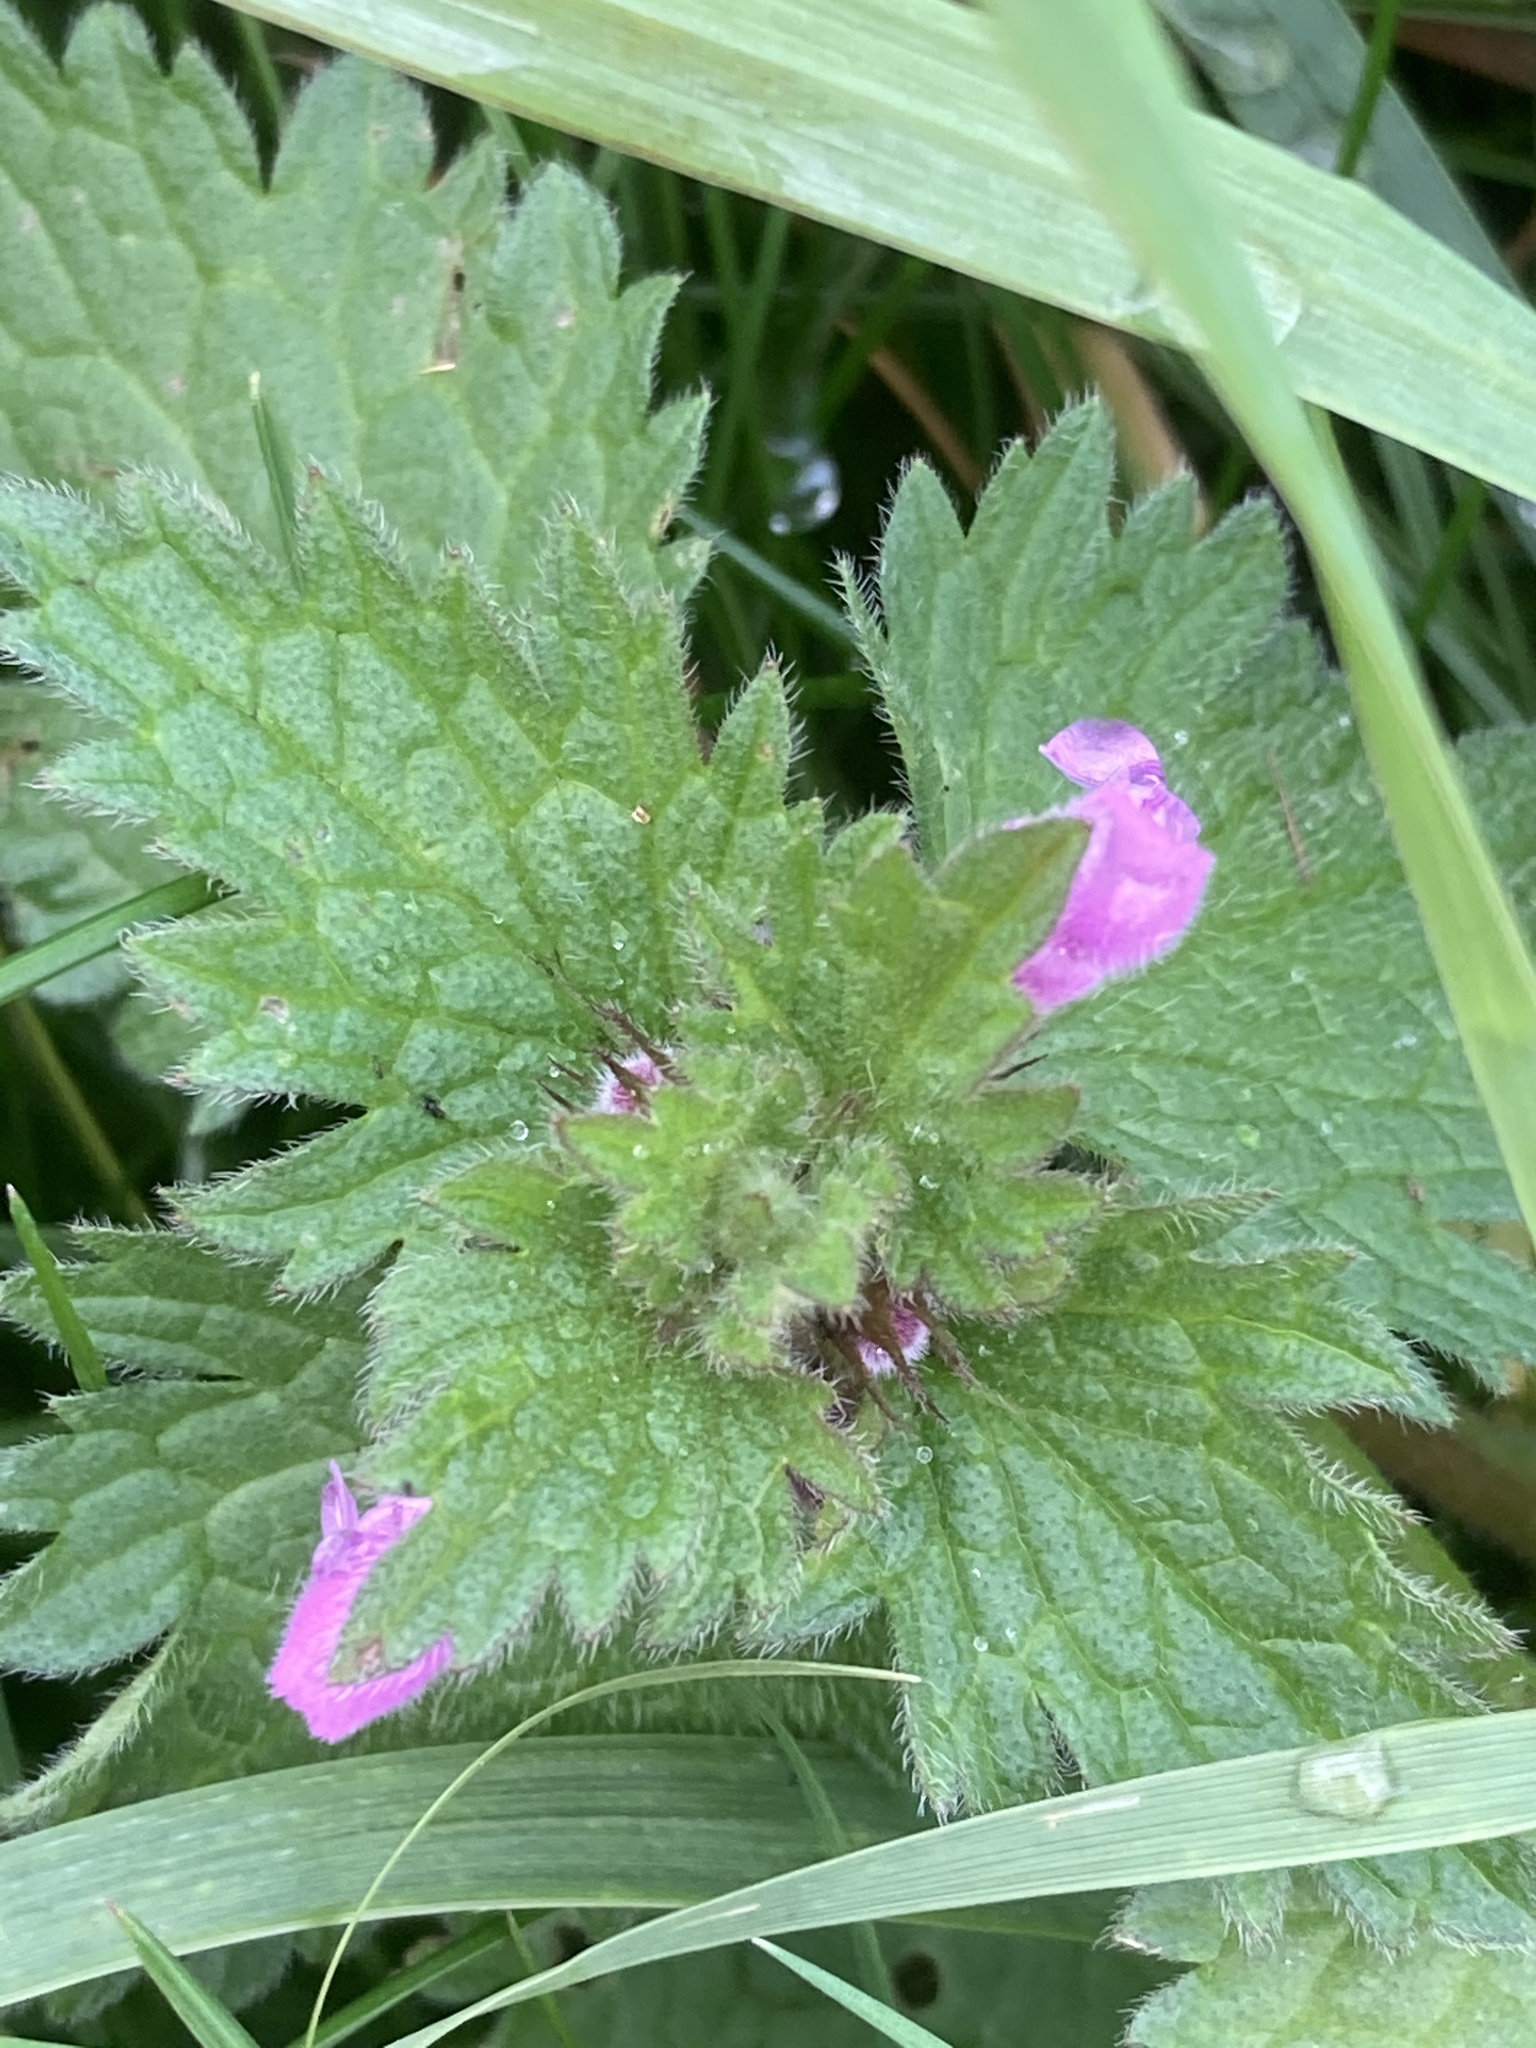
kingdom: Plantae
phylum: Tracheophyta
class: Magnoliopsida
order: Lamiales
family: Lamiaceae
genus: Lamium
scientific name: Lamium hybridum
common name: Cut-leaved dead-nettle
